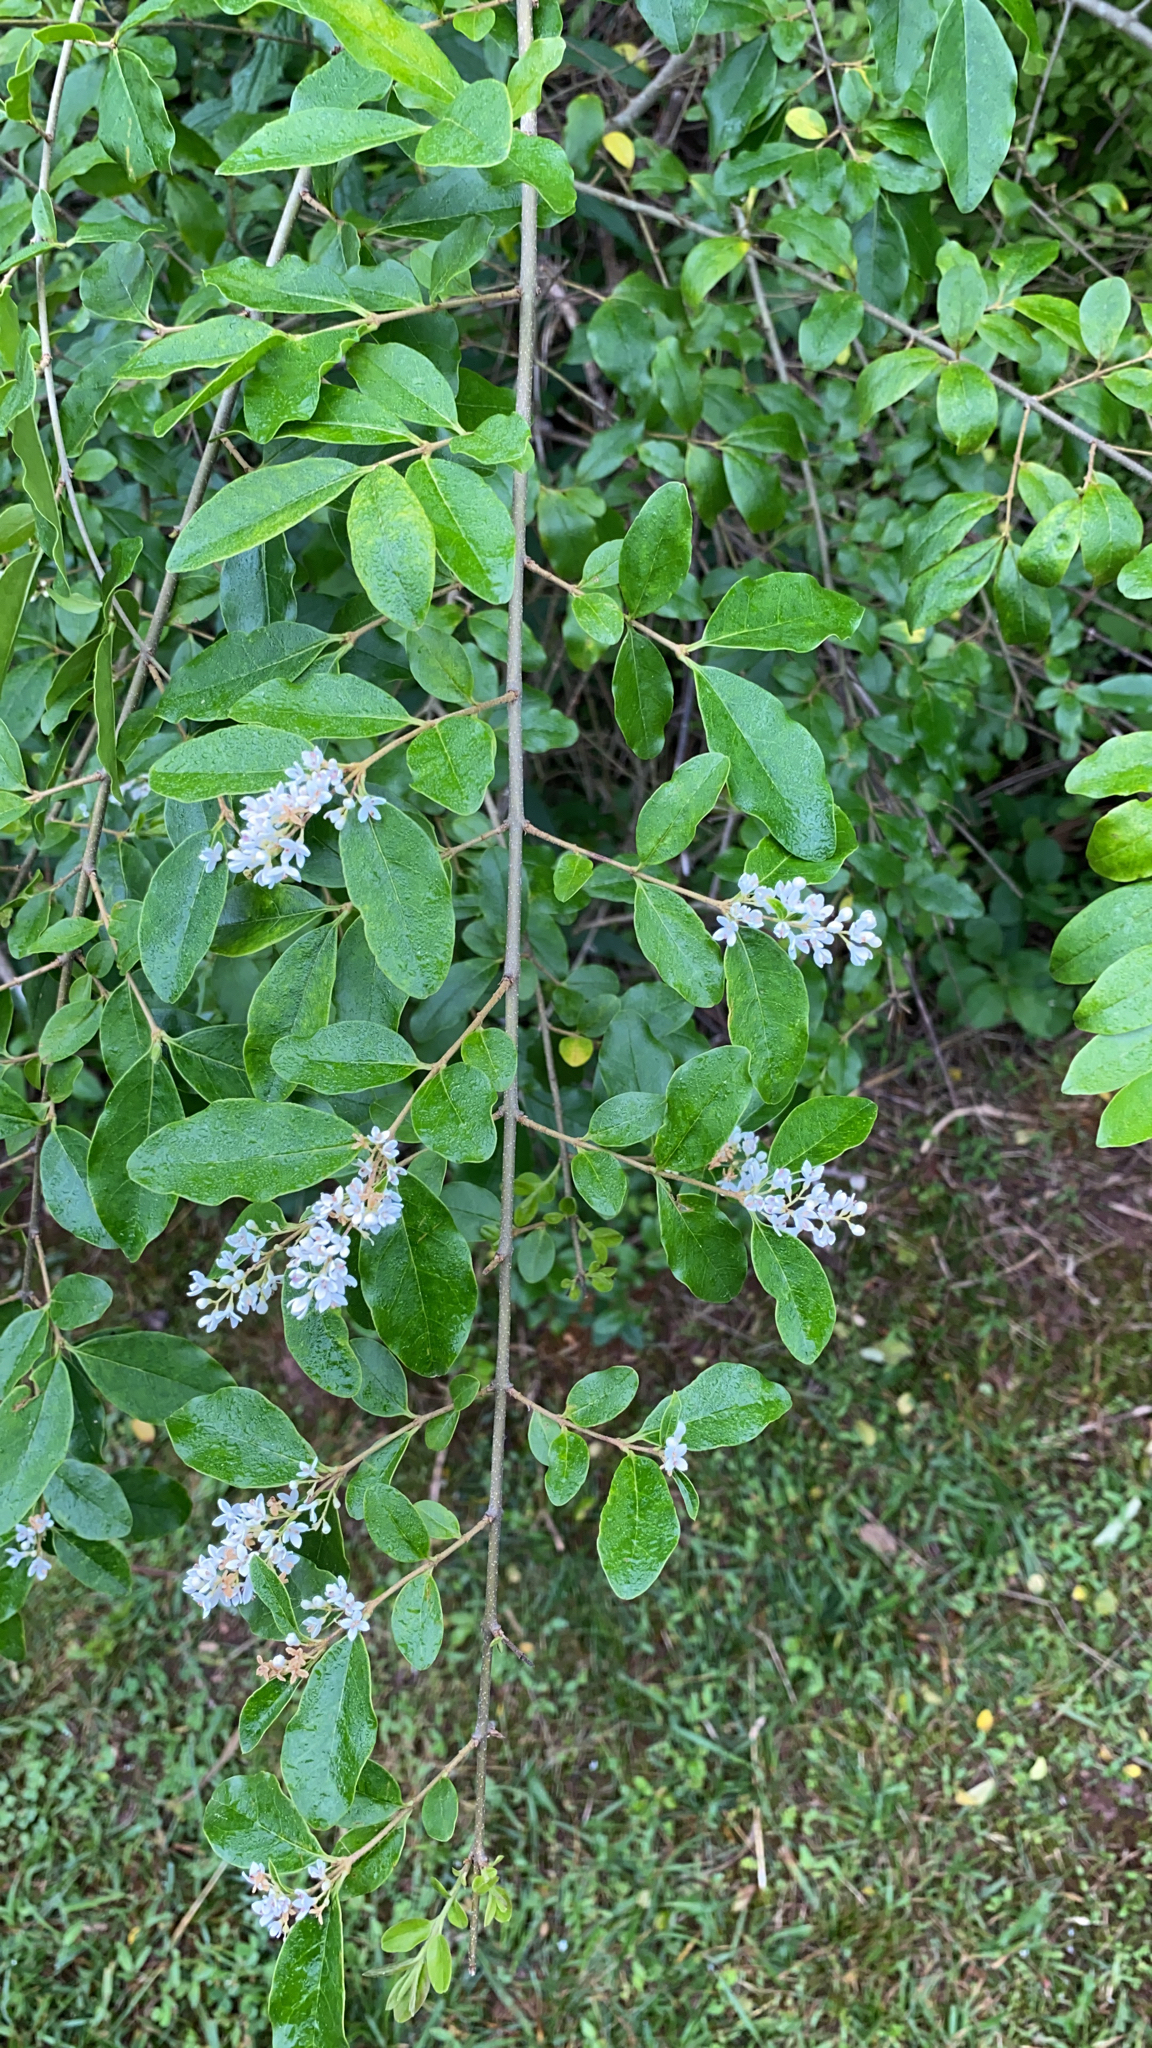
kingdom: Plantae
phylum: Tracheophyta
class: Magnoliopsida
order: Lamiales
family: Oleaceae
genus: Ligustrum
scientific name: Ligustrum sinense
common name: Chinese privet
